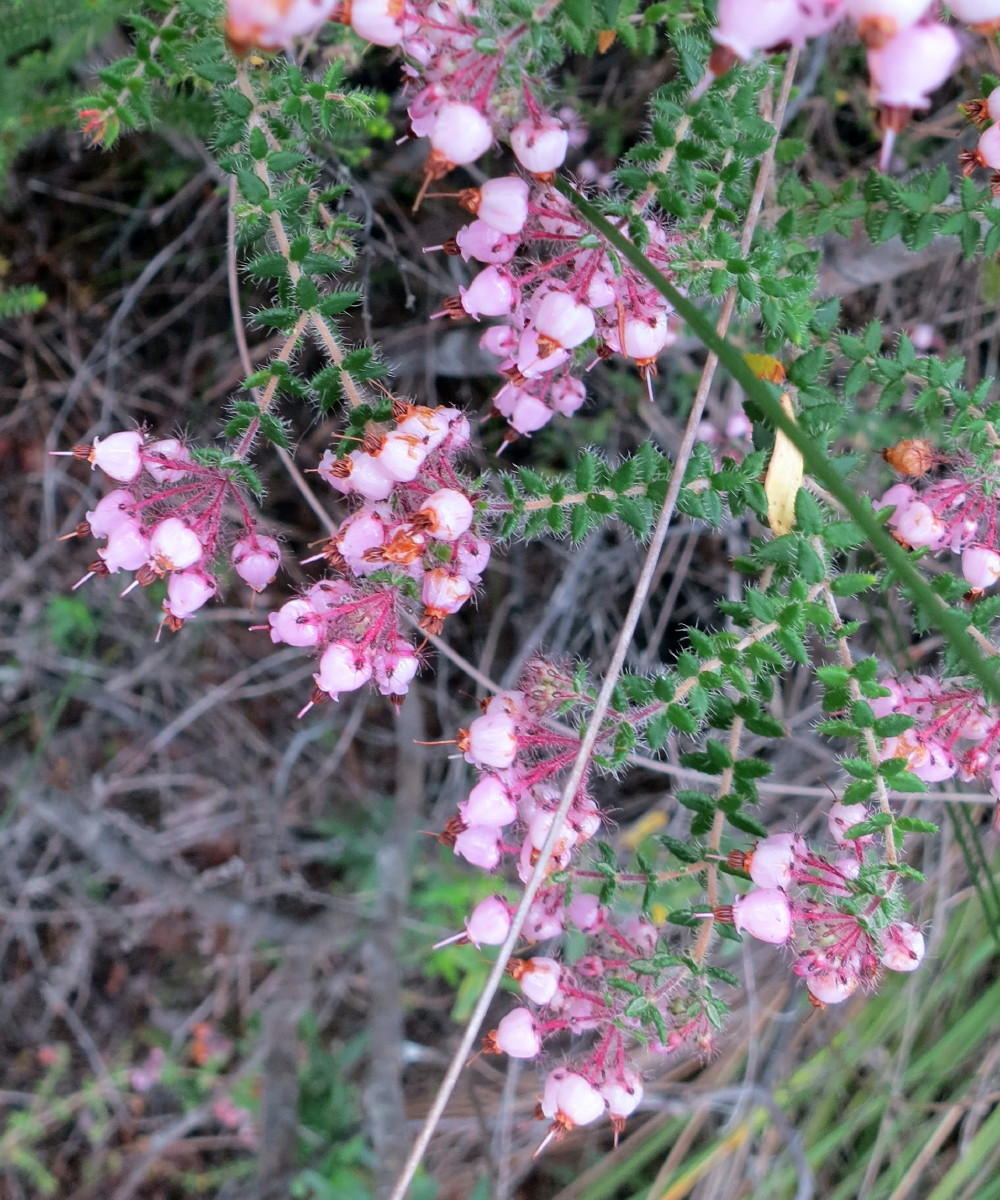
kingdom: Plantae
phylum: Tracheophyta
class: Magnoliopsida
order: Ericales
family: Ericaceae
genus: Erica
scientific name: Erica aneimena
